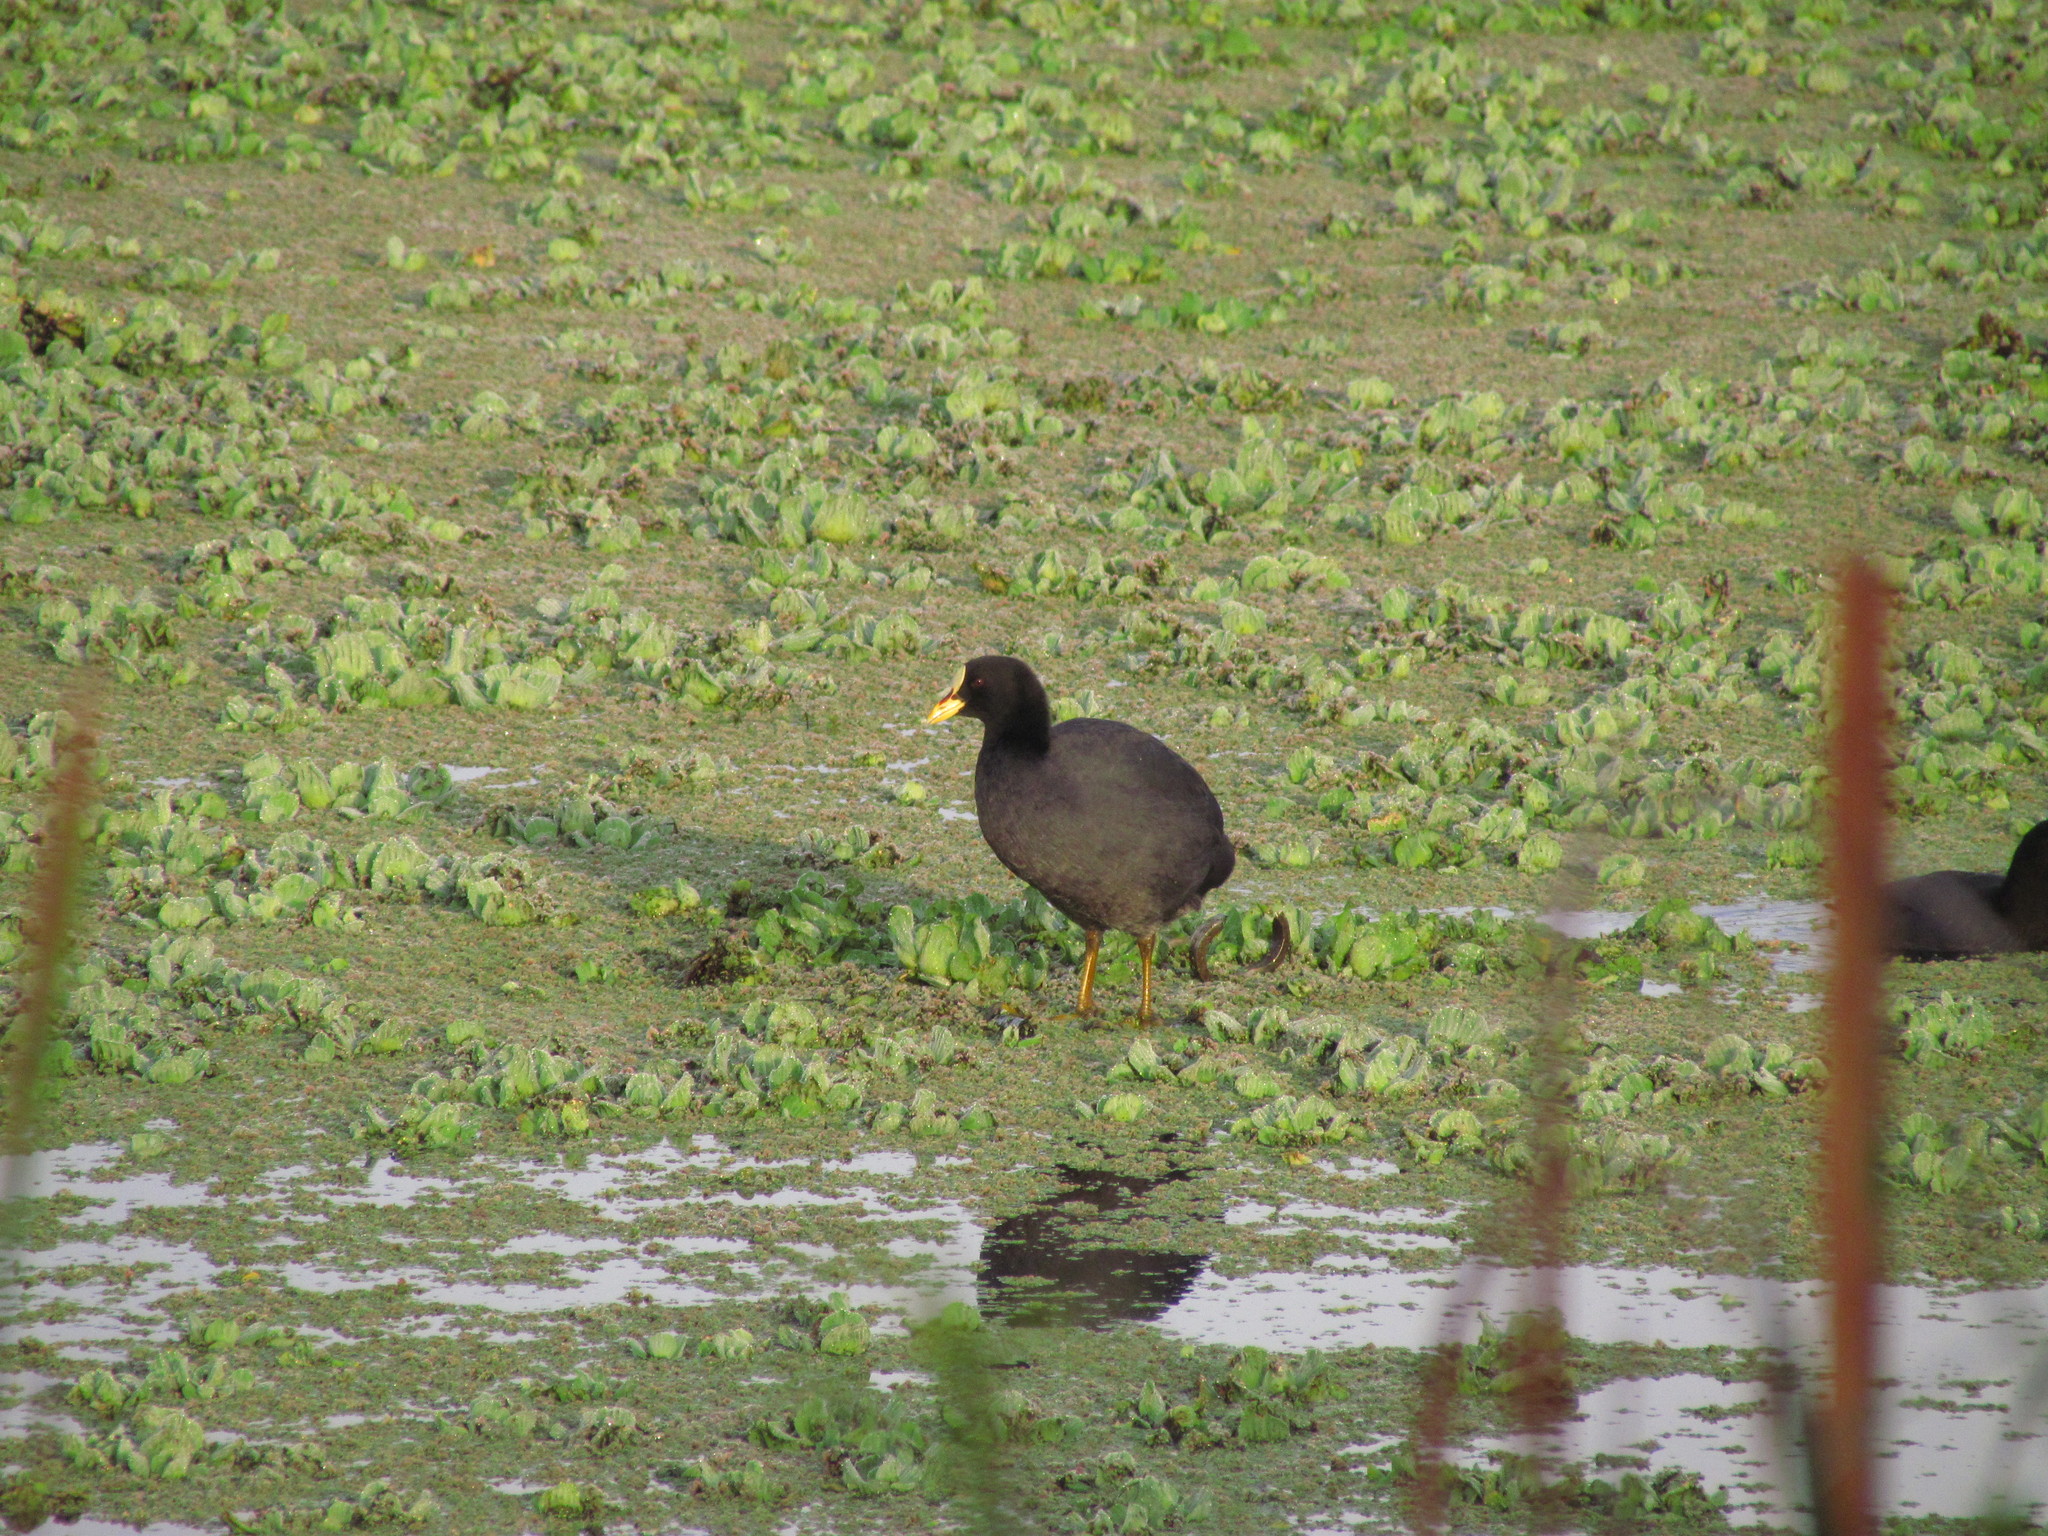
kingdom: Animalia
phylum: Chordata
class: Aves
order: Gruiformes
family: Rallidae
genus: Fulica
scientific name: Fulica armillata
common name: Red-gartered coot
